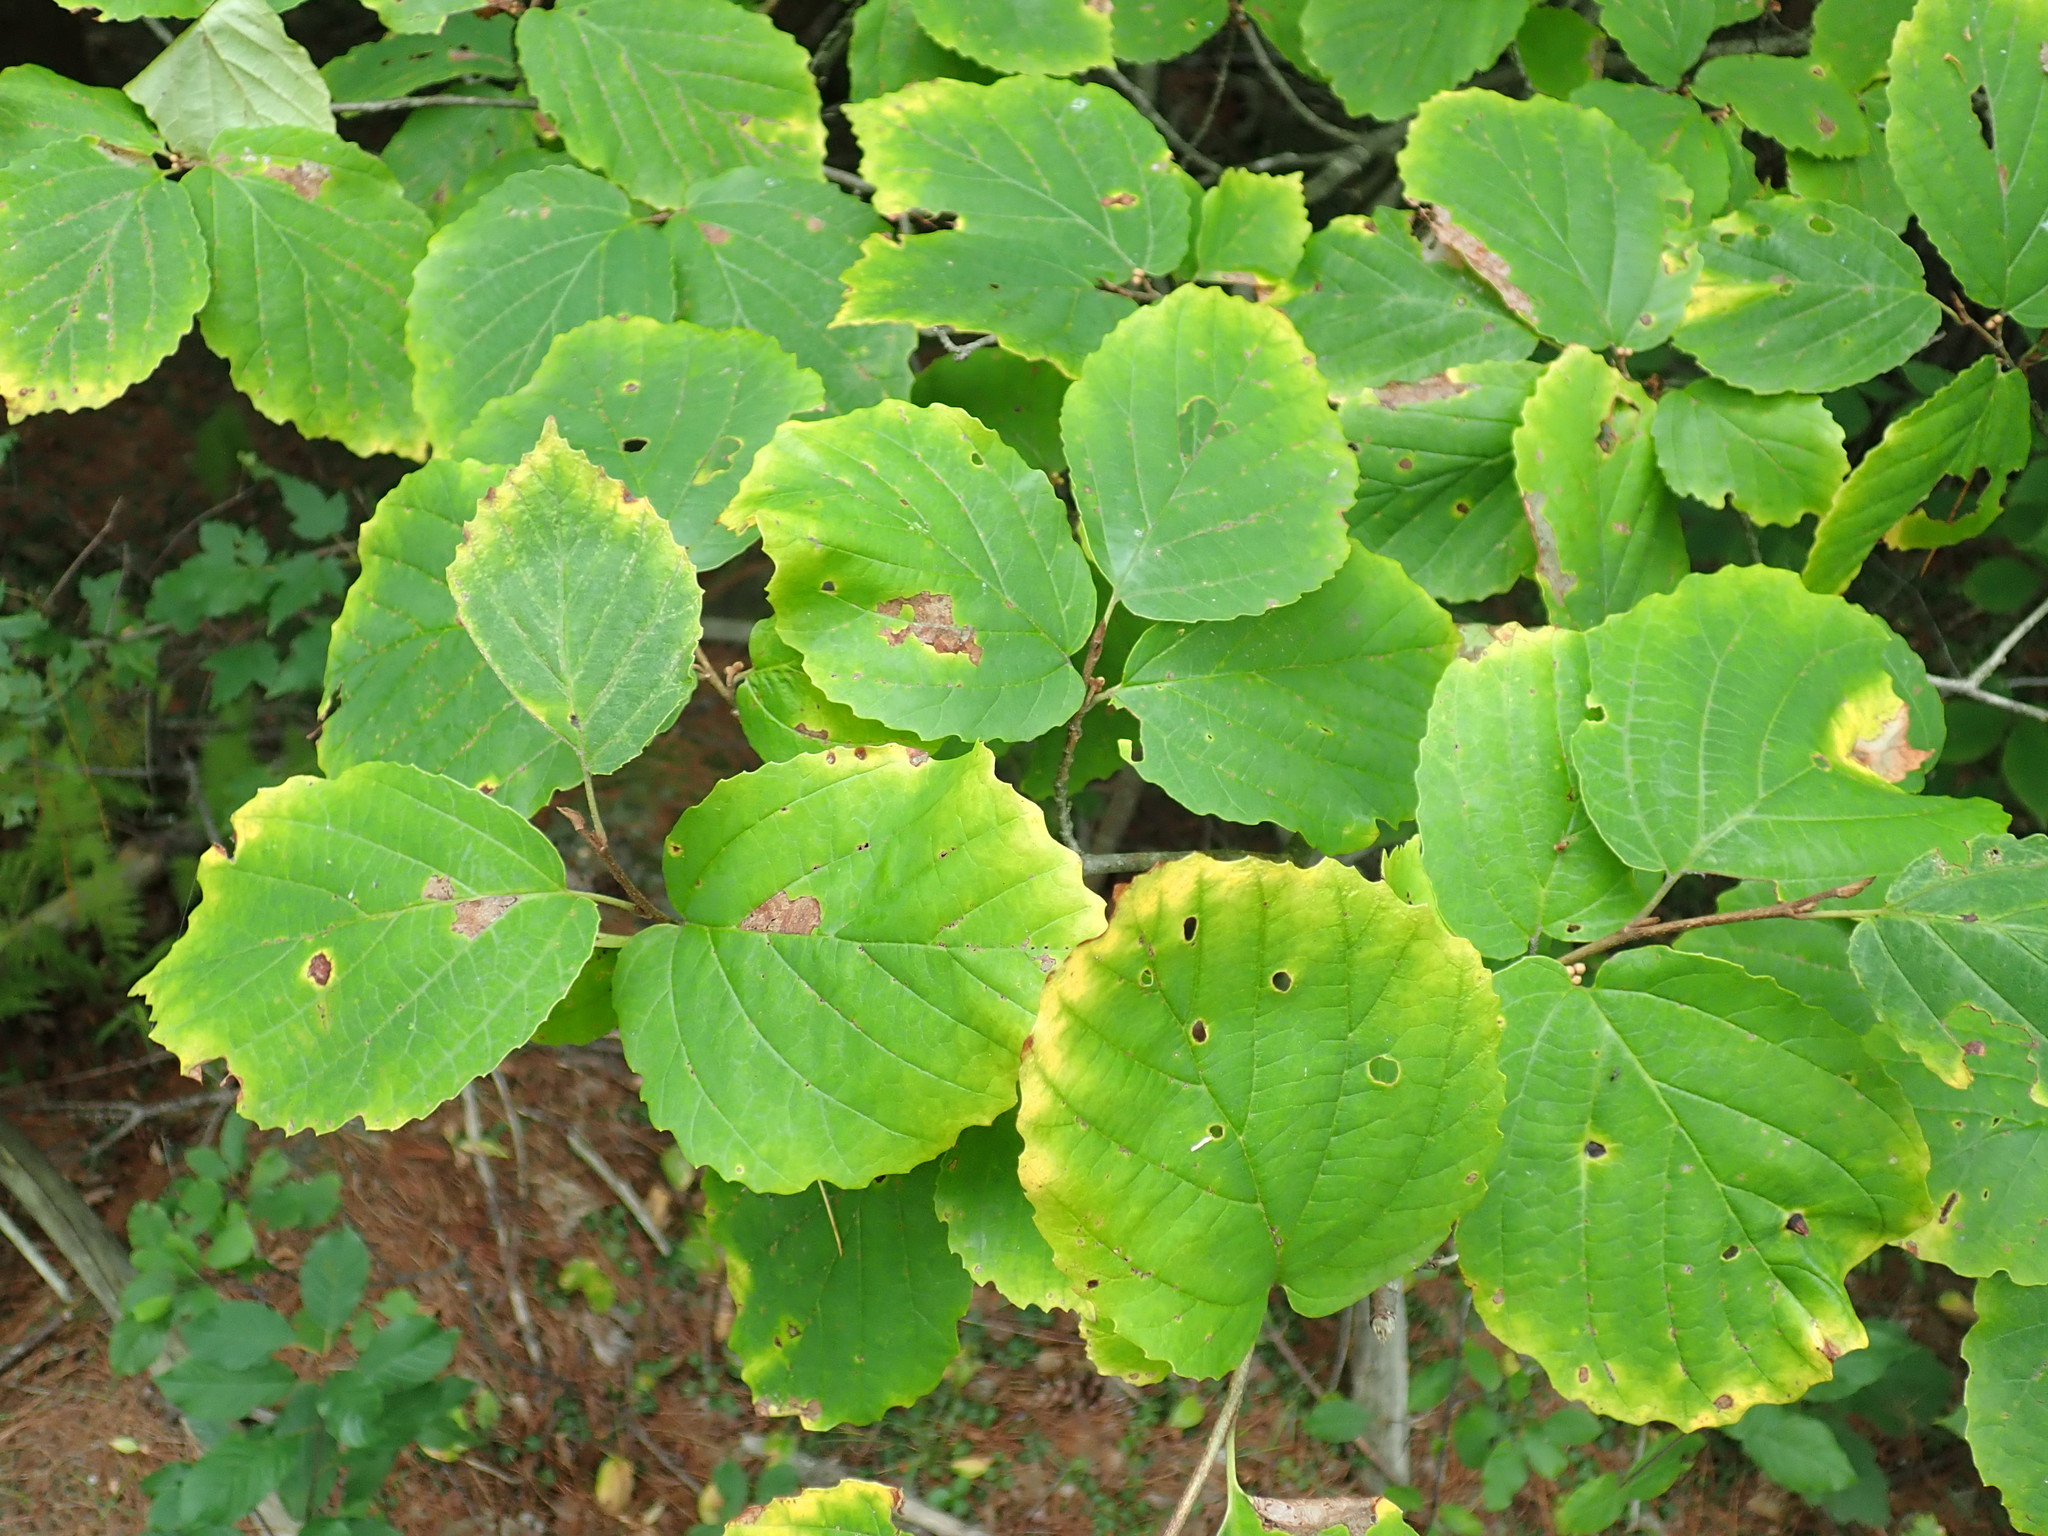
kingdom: Plantae
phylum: Tracheophyta
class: Magnoliopsida
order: Saxifragales
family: Hamamelidaceae
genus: Hamamelis
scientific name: Hamamelis virginiana
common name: Witch-hazel
